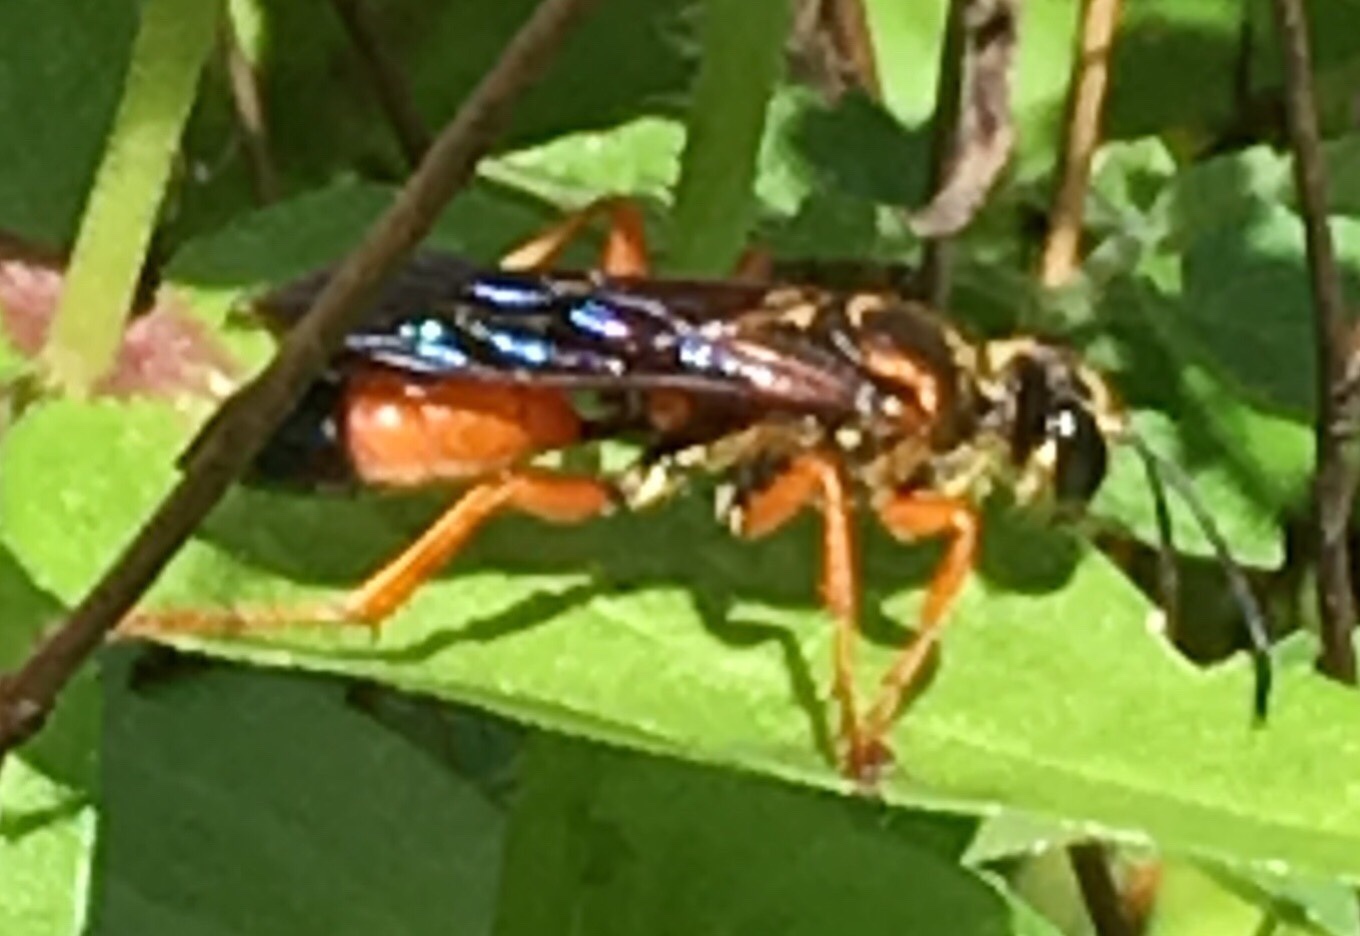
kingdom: Animalia
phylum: Arthropoda
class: Insecta
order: Hymenoptera
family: Sphecidae
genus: Sphex
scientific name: Sphex ichneumoneus
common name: Great golden digger wasp
